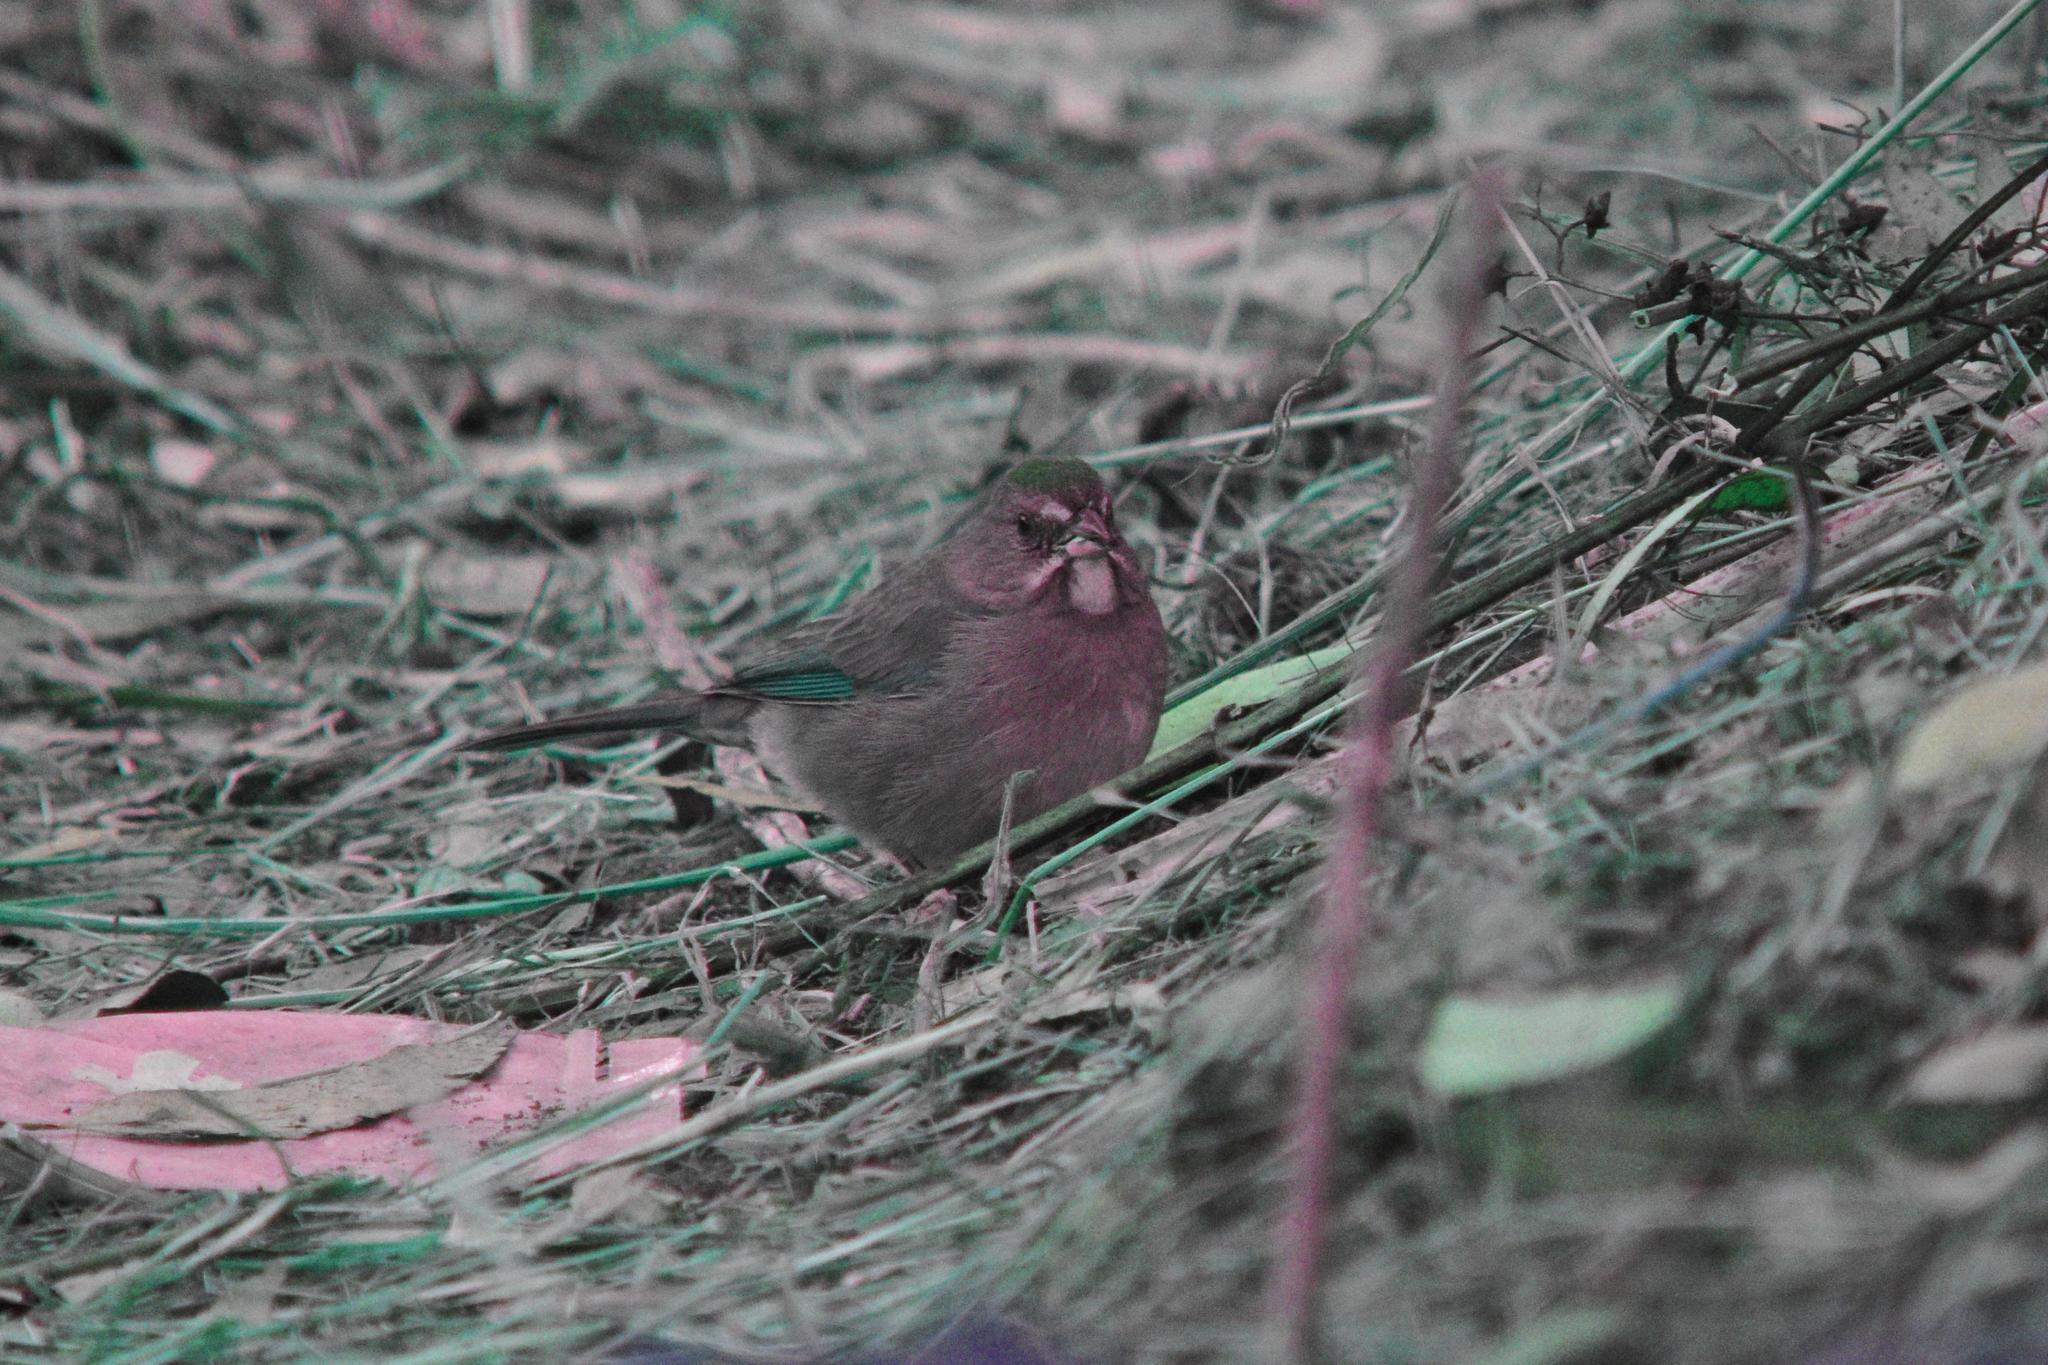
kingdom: Animalia
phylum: Chordata
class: Aves
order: Passeriformes
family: Passerellidae
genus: Pipilo
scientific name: Pipilo chlorurus
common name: Green-tailed towhee
